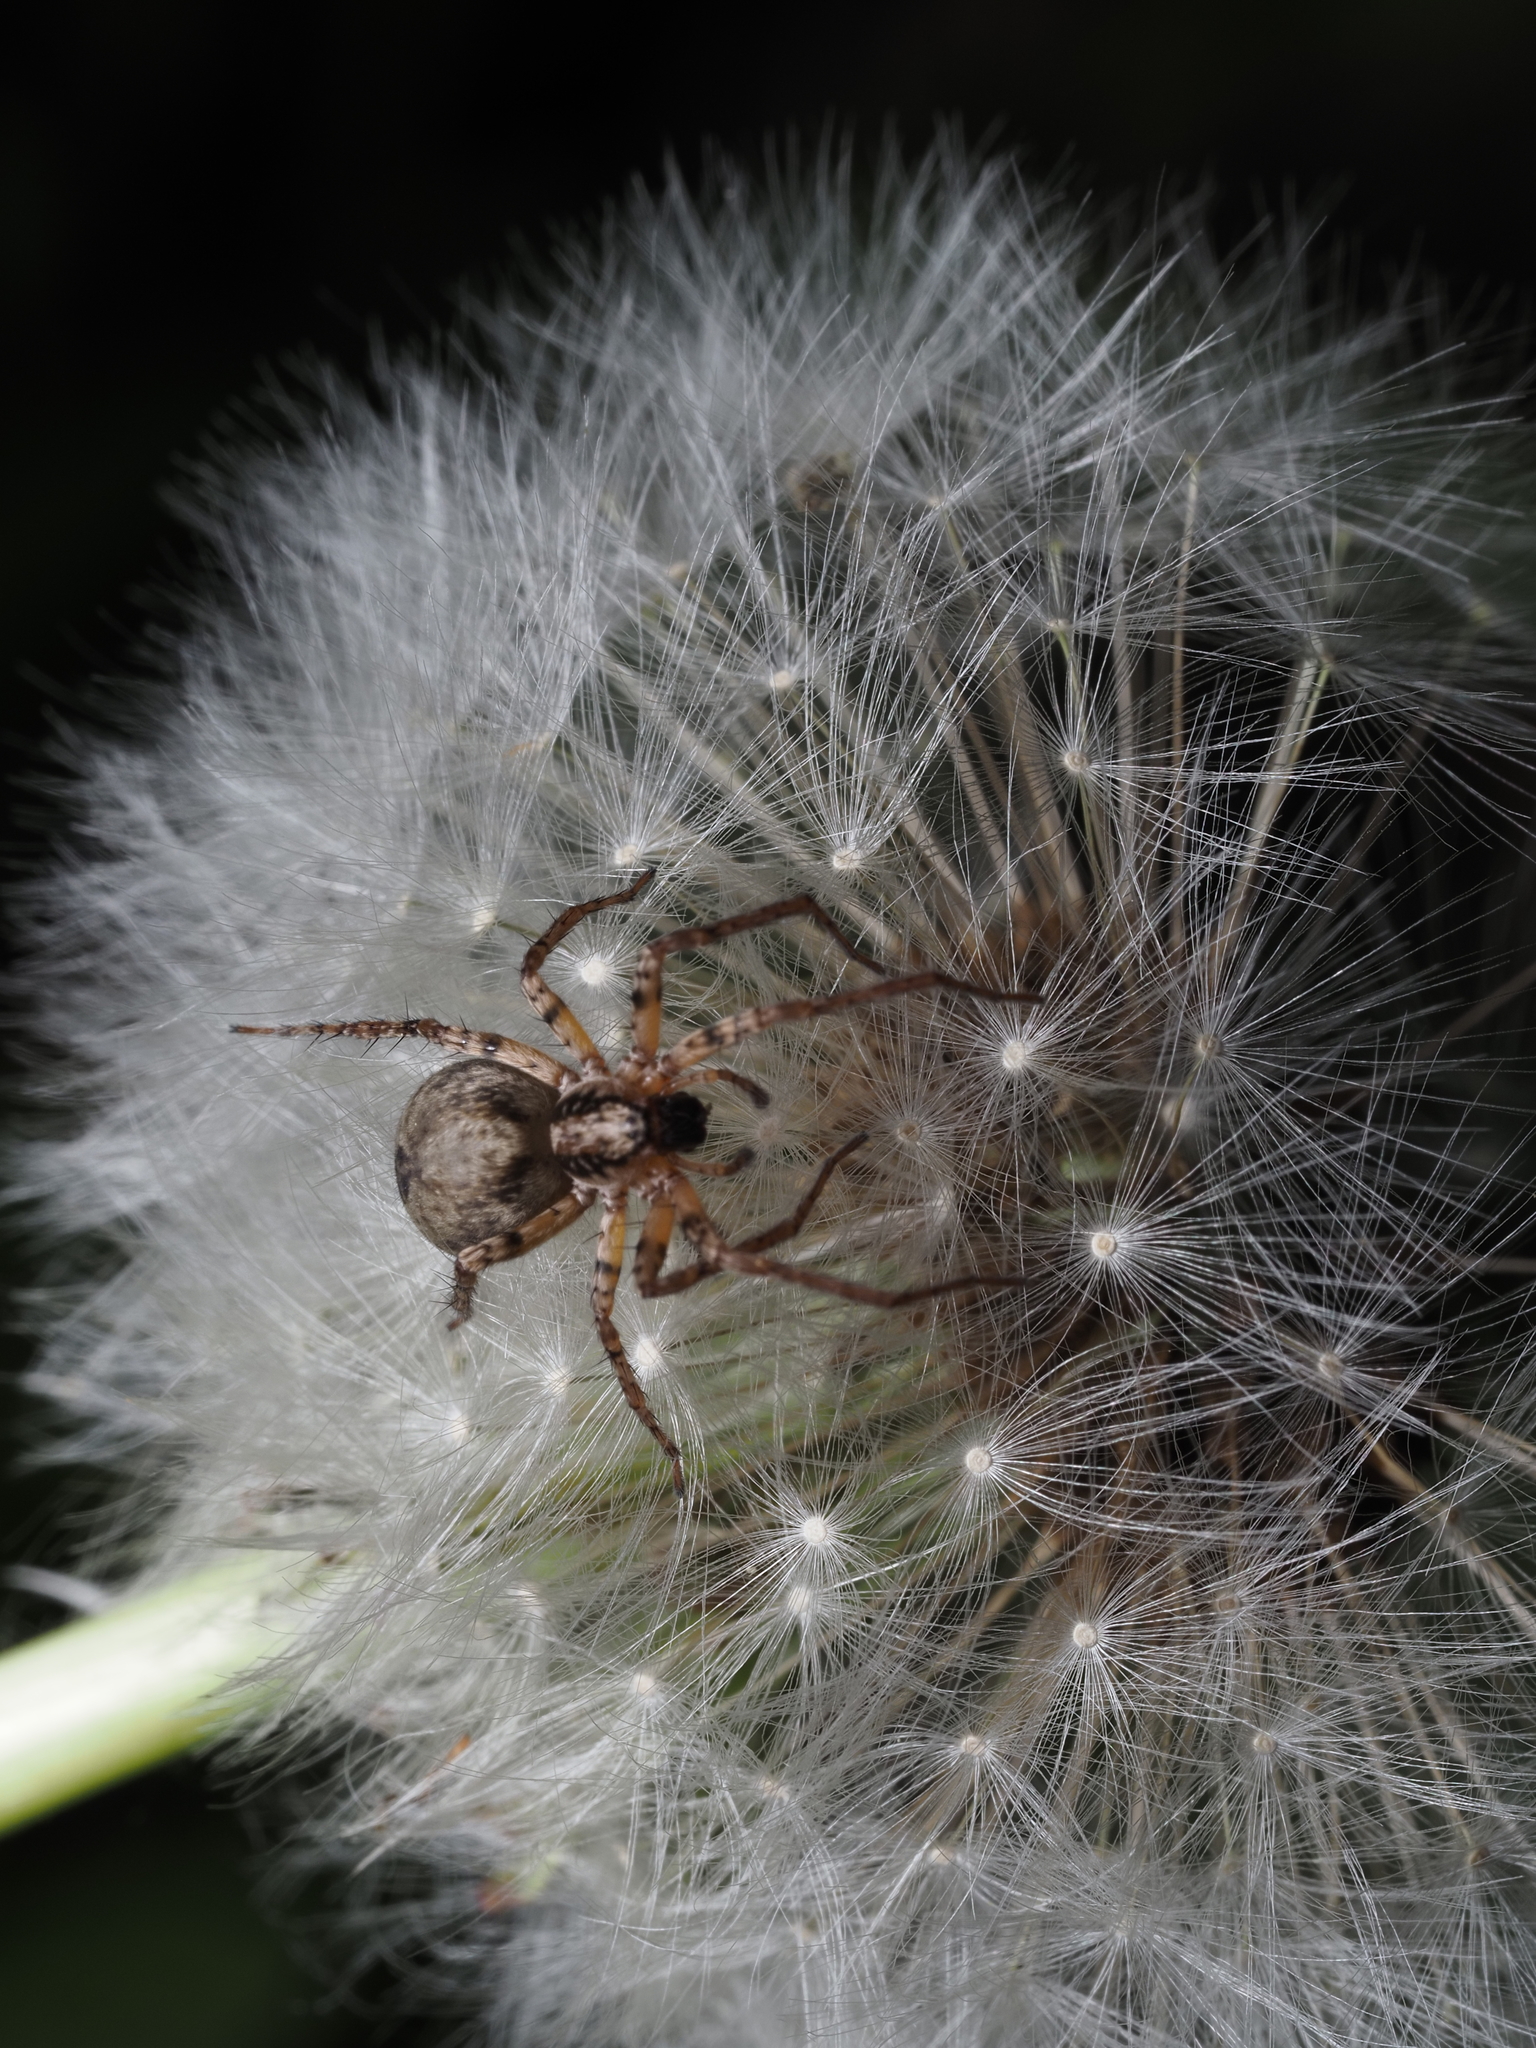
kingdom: Animalia
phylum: Arthropoda
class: Arachnida
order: Araneae
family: Anyphaenidae
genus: Anyphaena
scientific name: Anyphaena accentuata
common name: Buzzing spider
